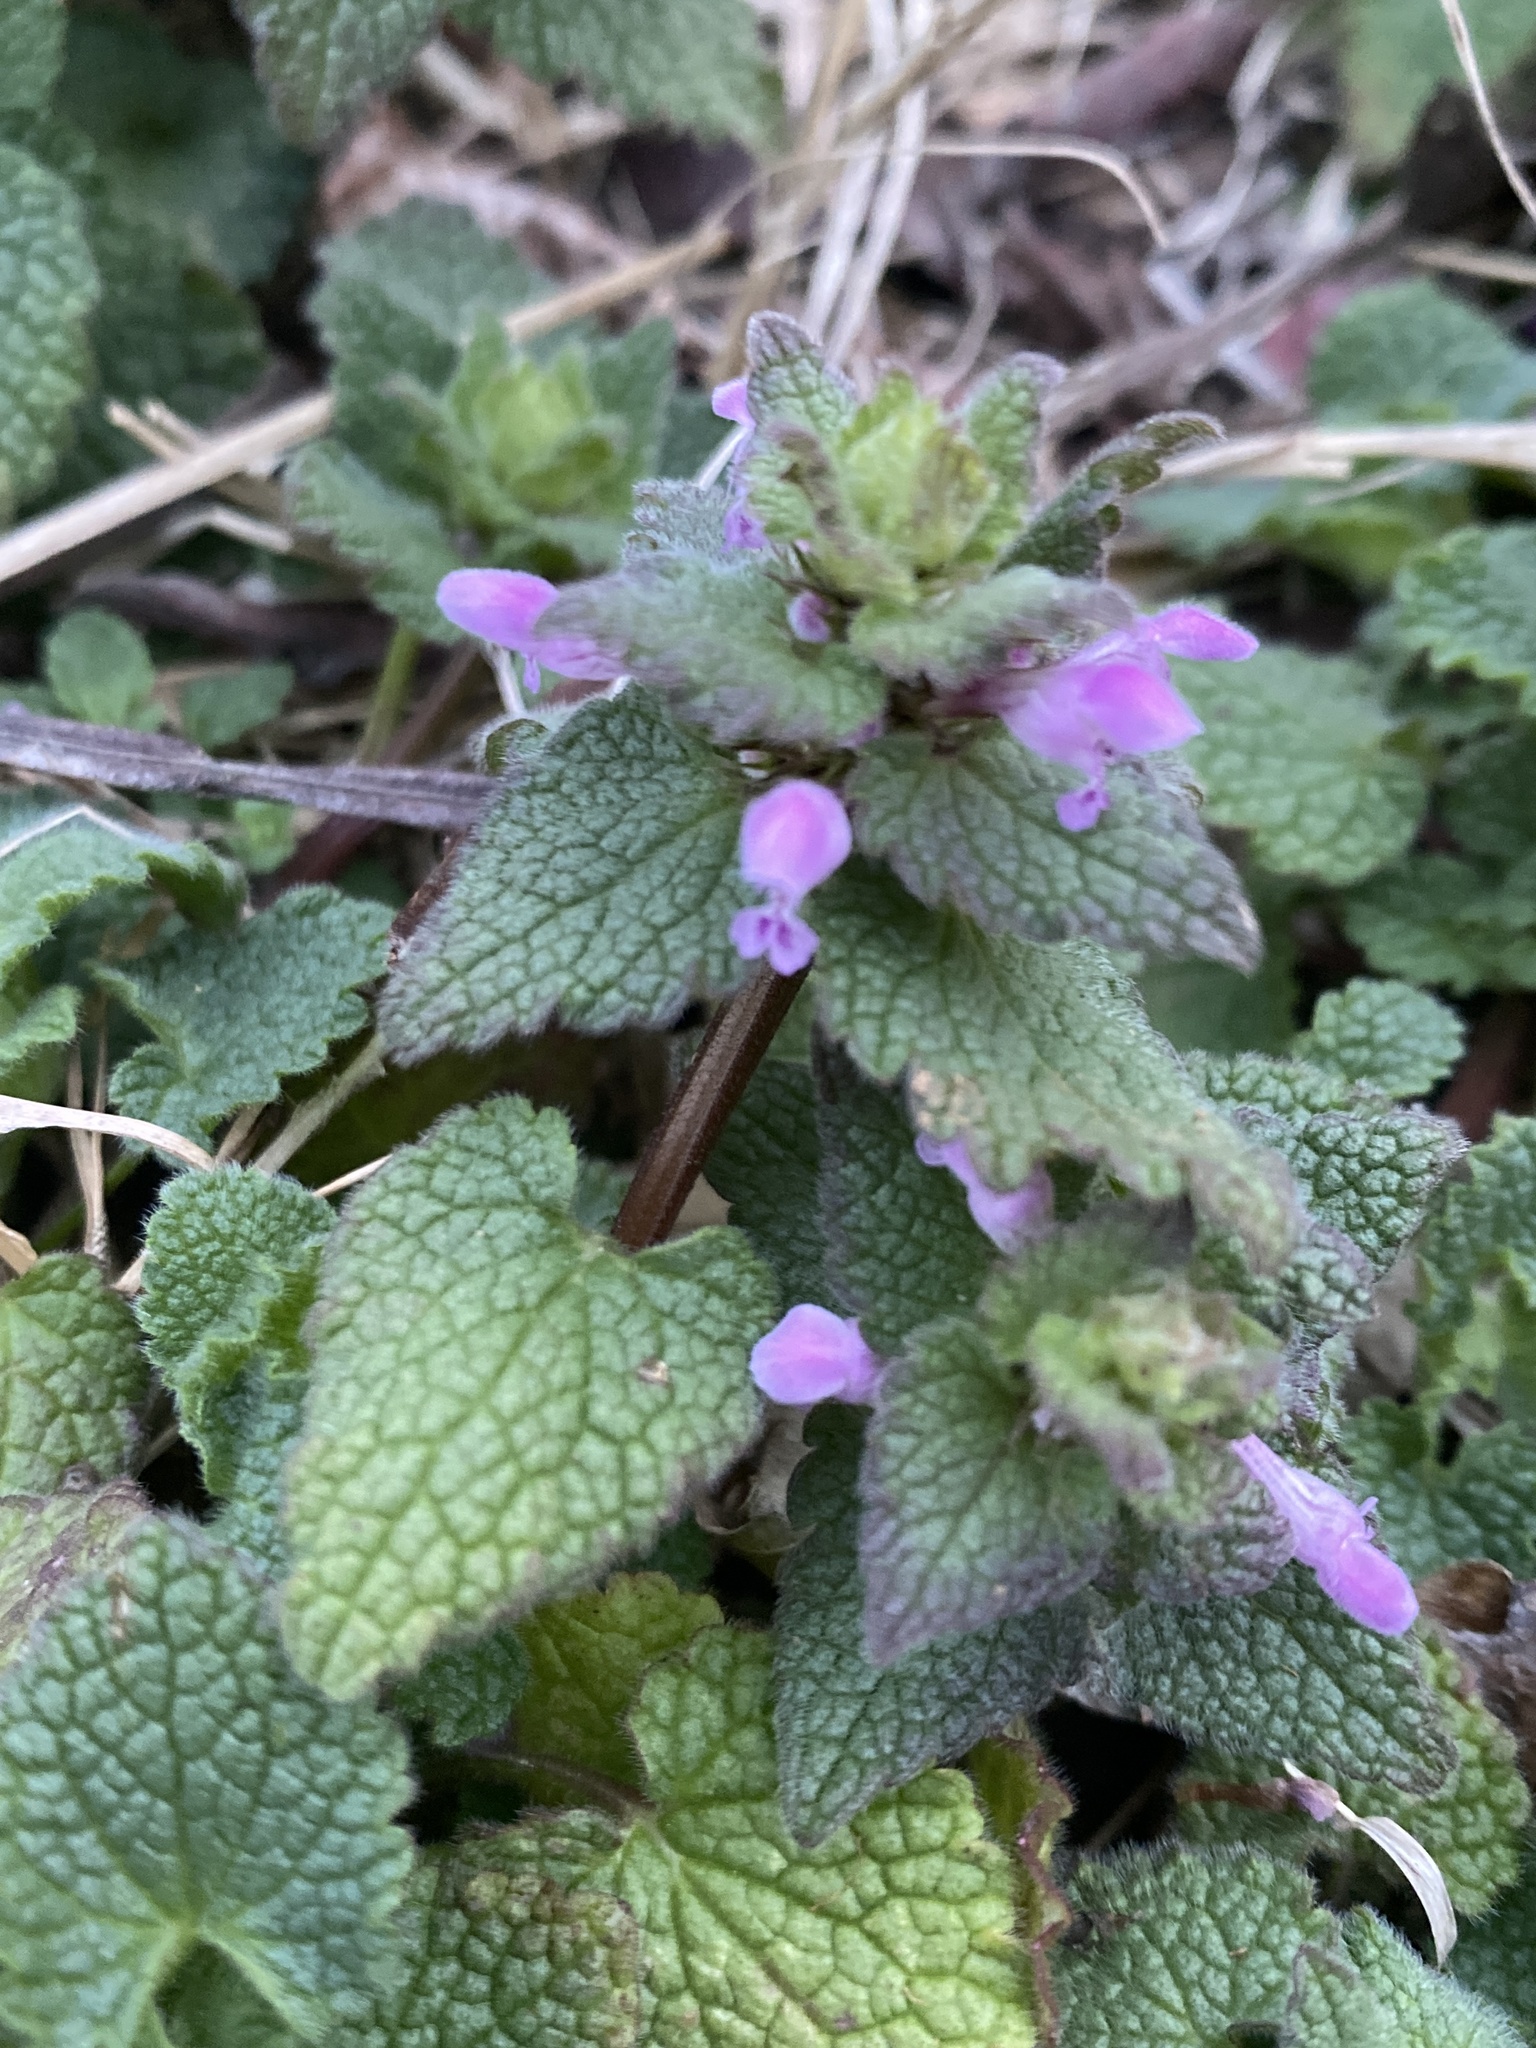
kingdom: Plantae
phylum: Tracheophyta
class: Magnoliopsida
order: Lamiales
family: Lamiaceae
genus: Lamium
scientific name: Lamium purpureum
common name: Red dead-nettle
